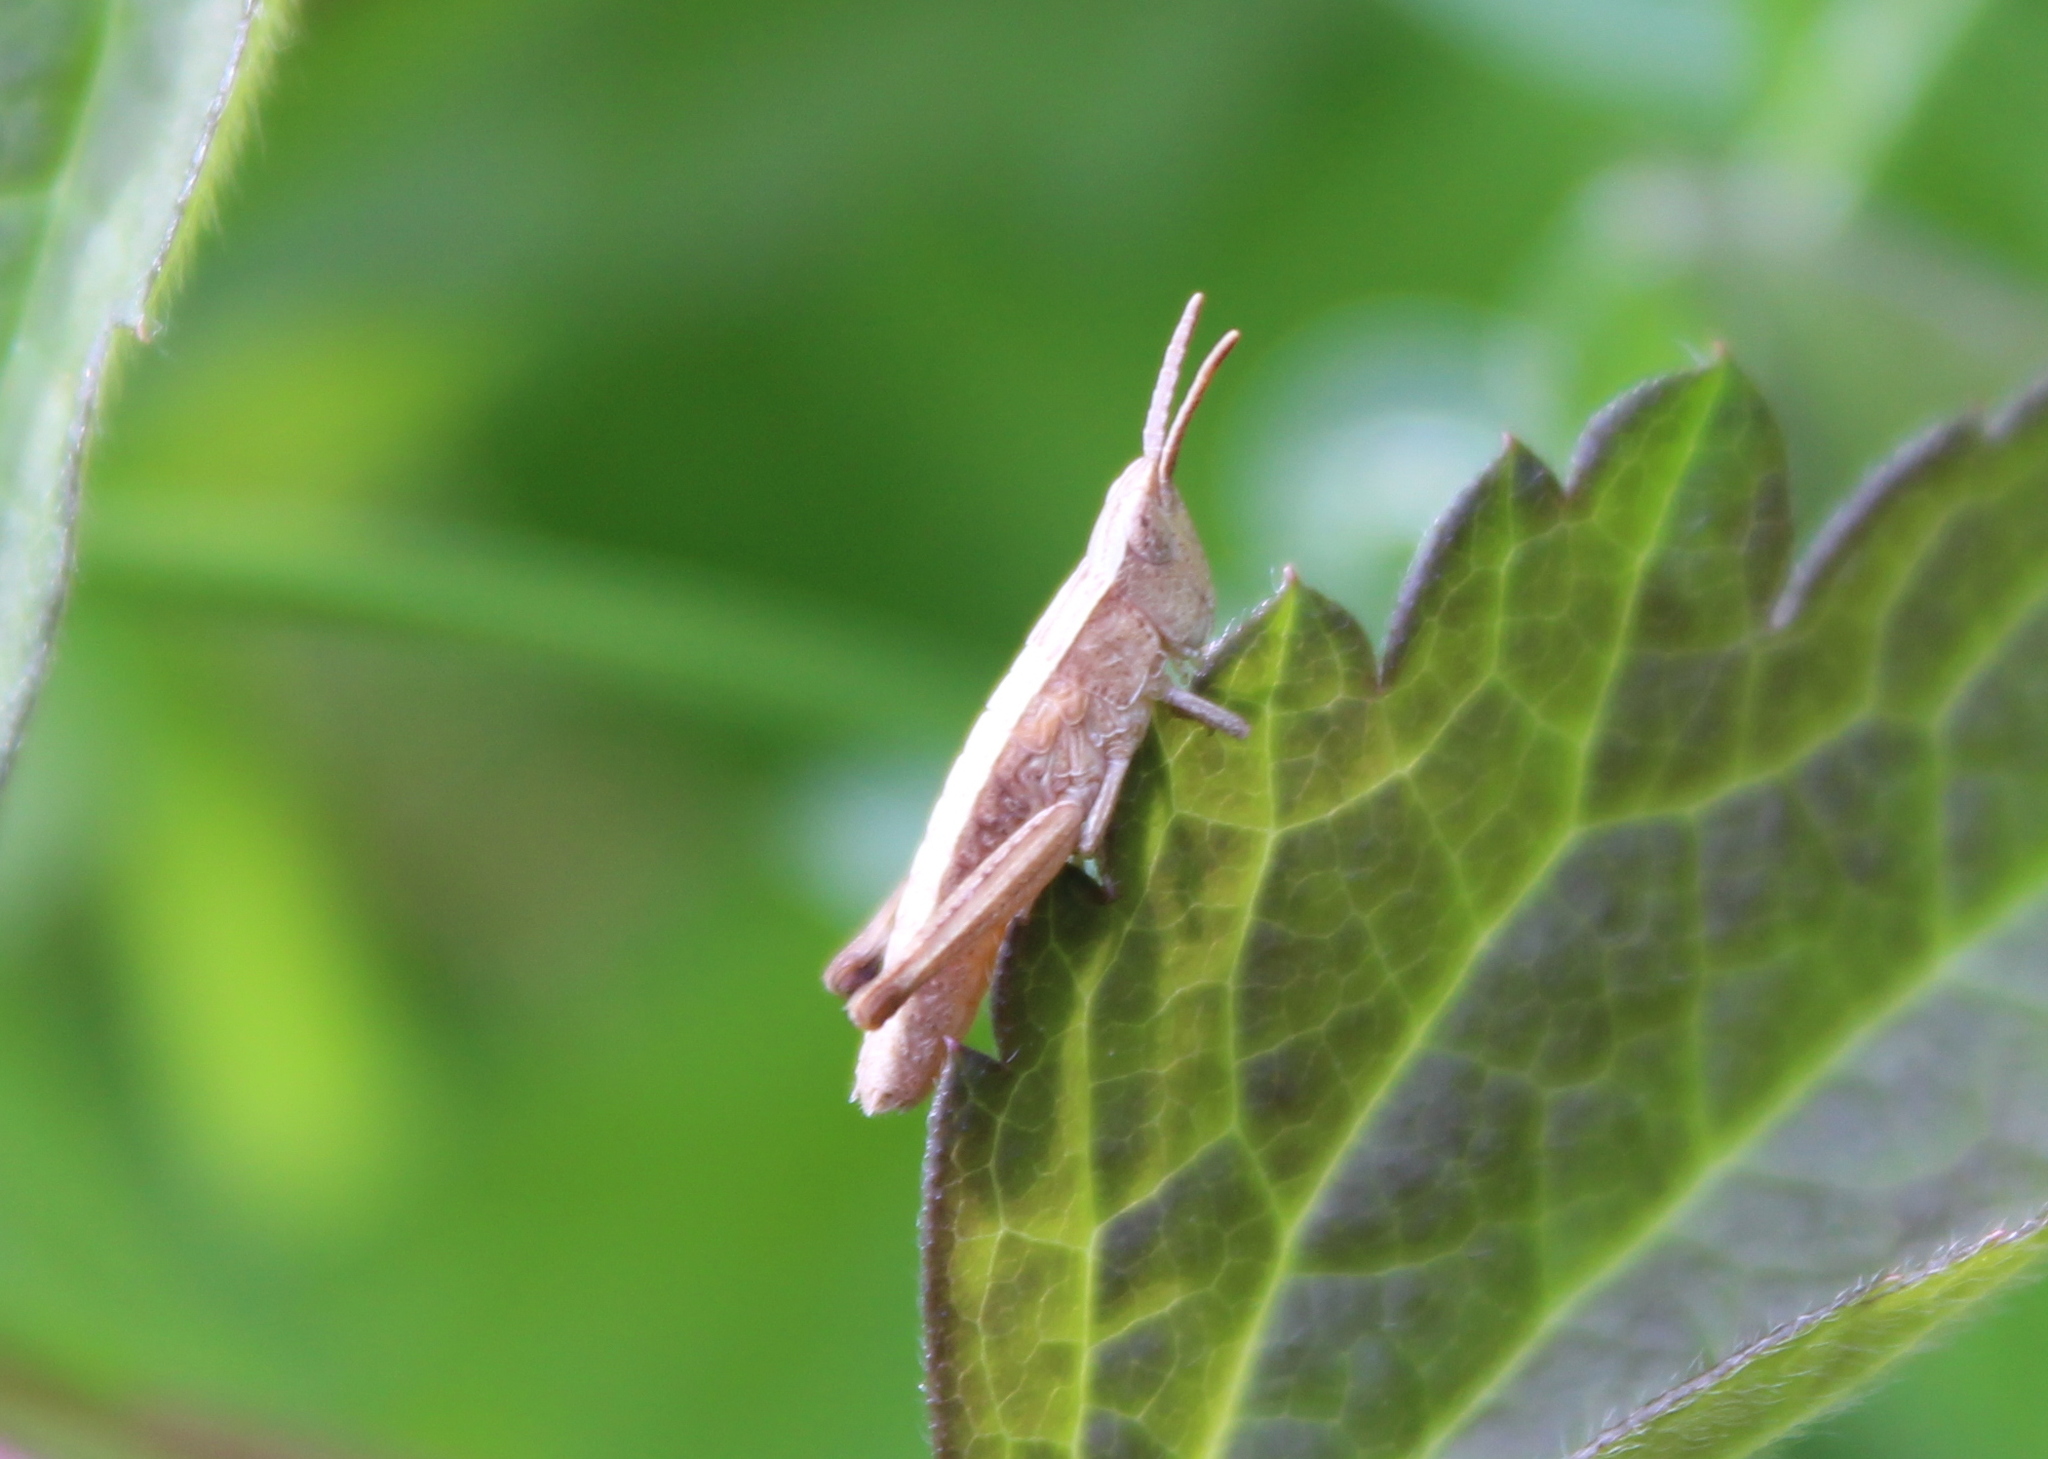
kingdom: Animalia
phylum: Arthropoda
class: Insecta
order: Orthoptera
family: Acrididae
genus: Chloealtis
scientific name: Chloealtis conspersa
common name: Sprinkled broad-winged grasshopper
